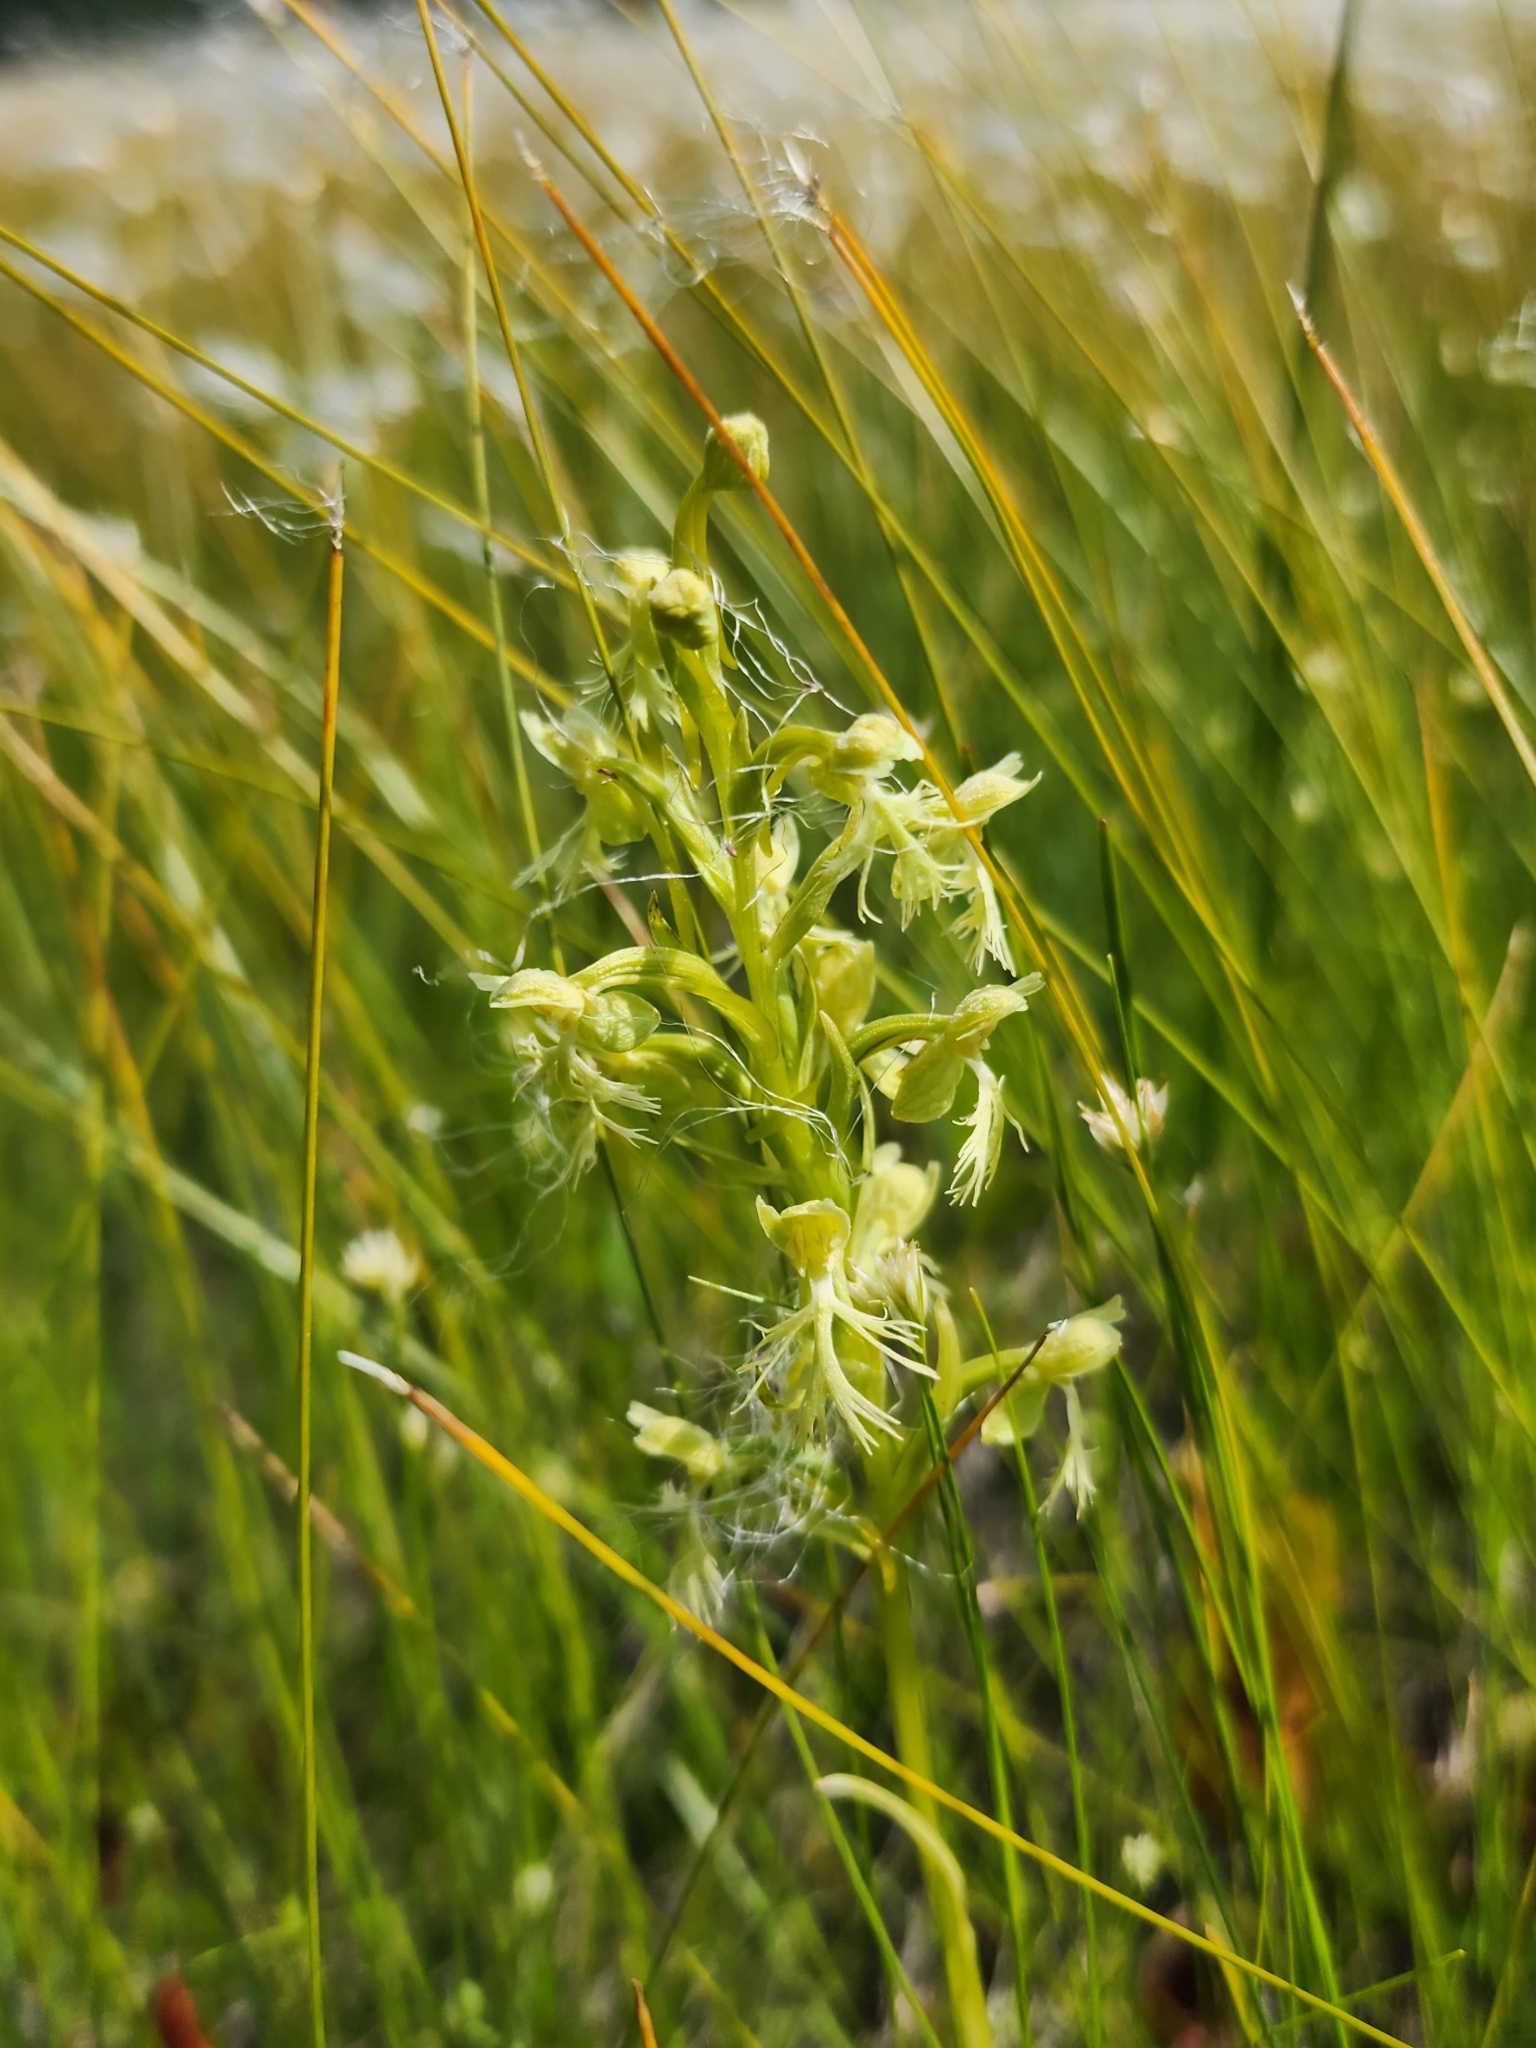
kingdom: Plantae
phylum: Tracheophyta
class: Liliopsida
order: Asparagales
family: Orchidaceae
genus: Platanthera
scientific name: Platanthera lacera
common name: Green fringed orchid
